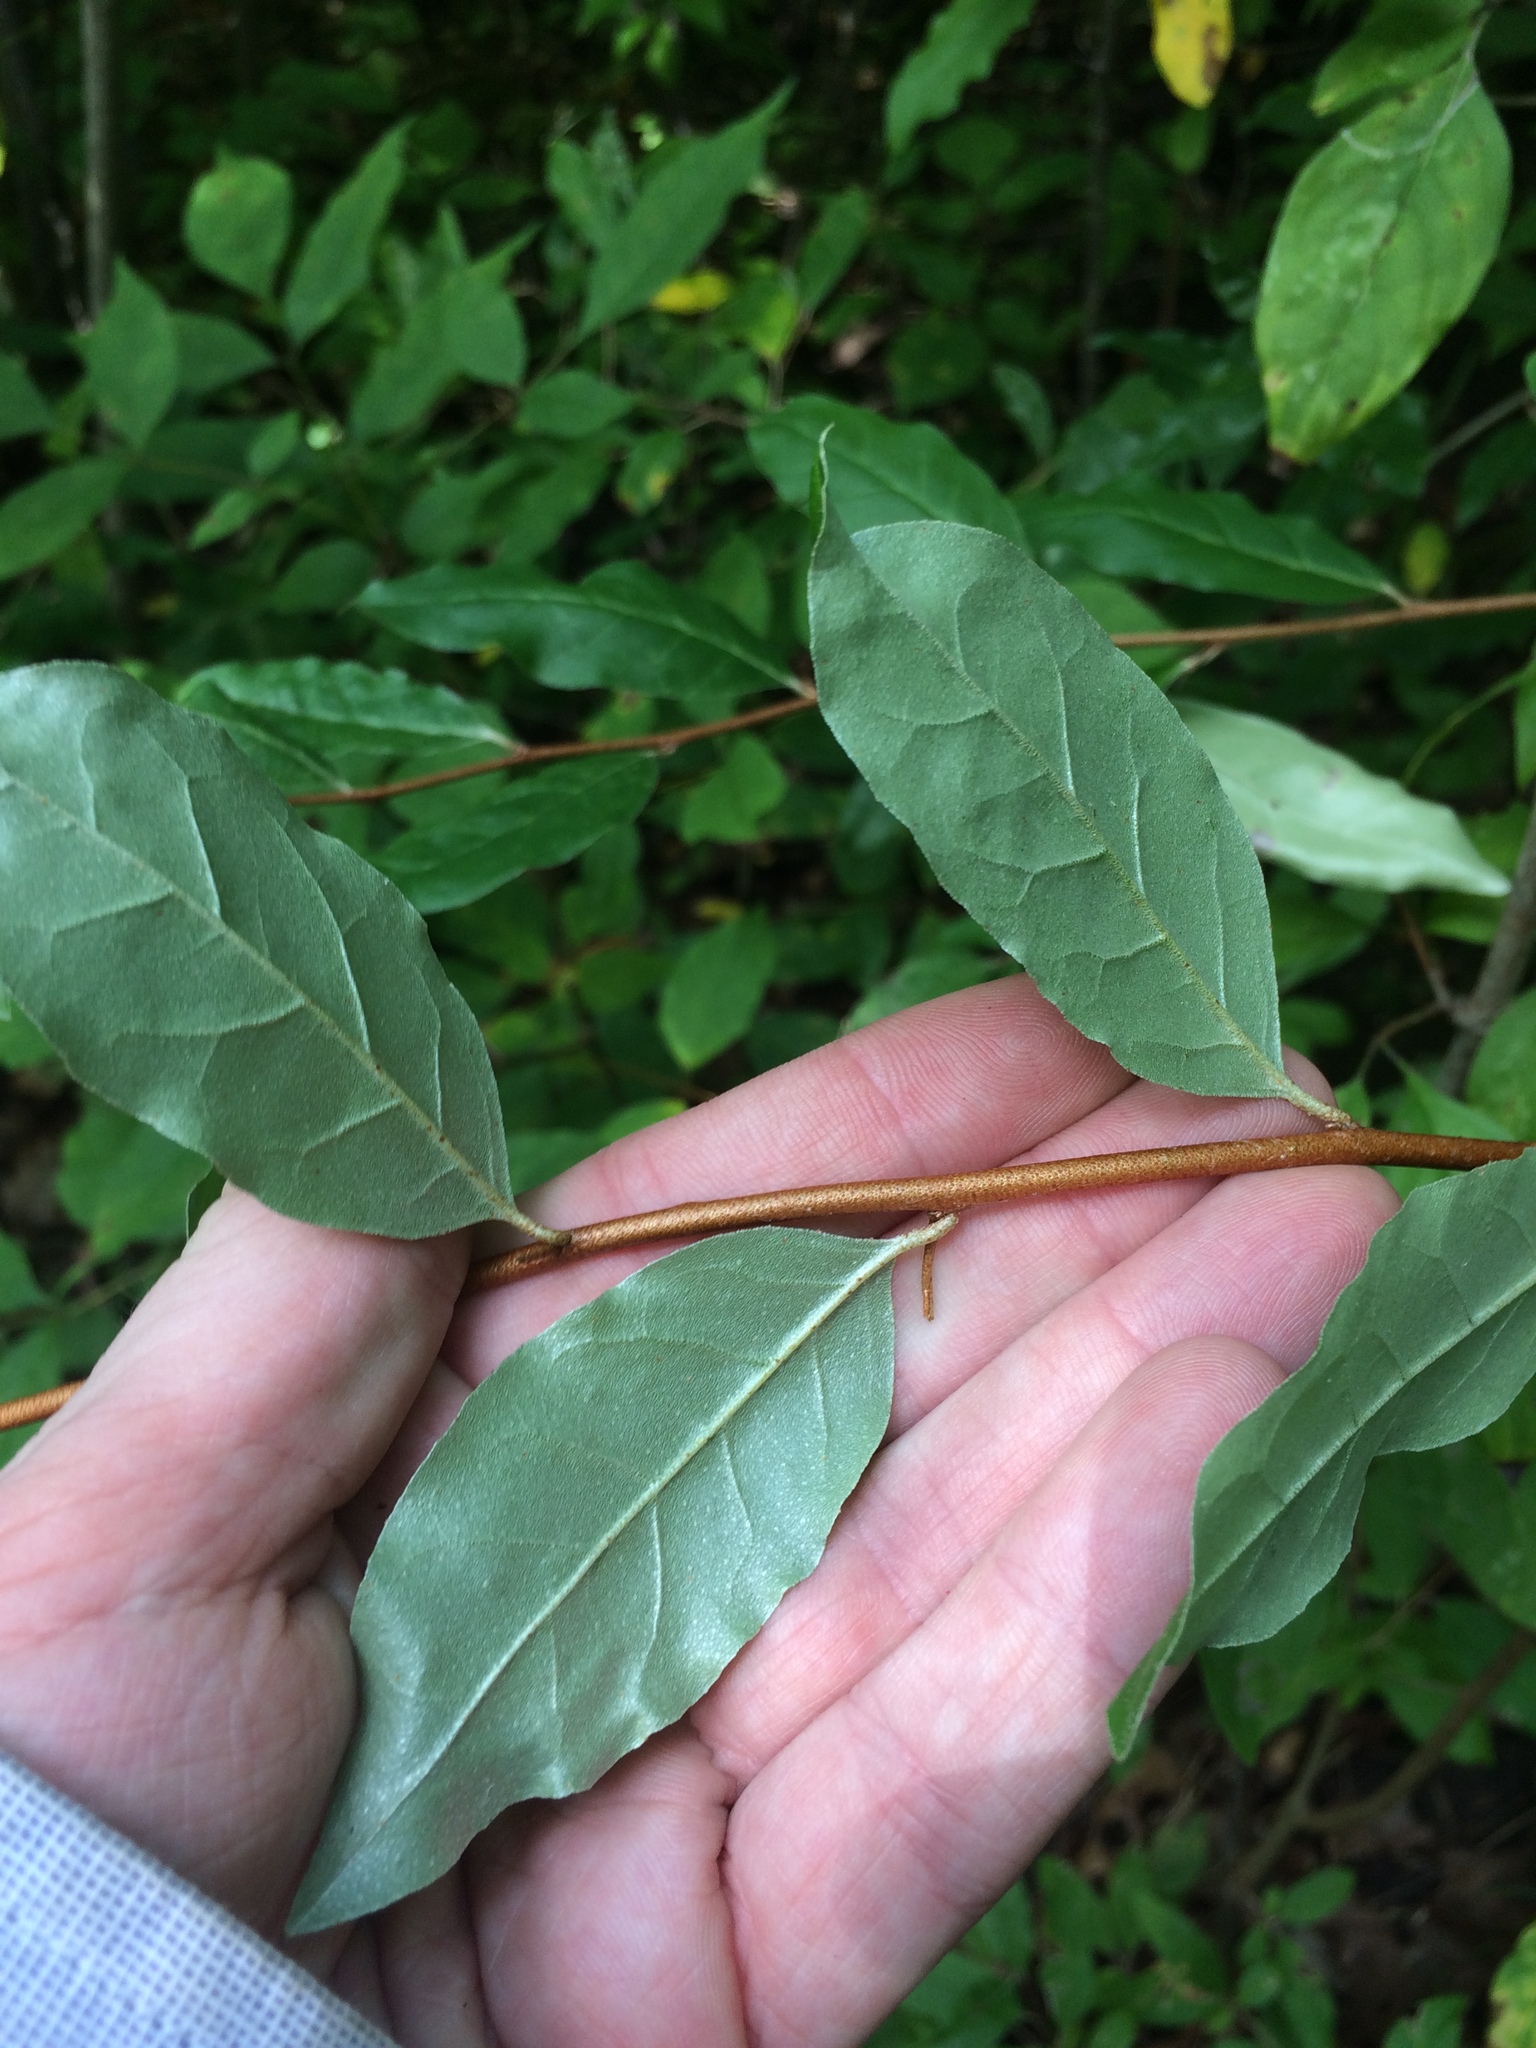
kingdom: Plantae
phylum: Tracheophyta
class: Magnoliopsida
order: Rosales
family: Elaeagnaceae
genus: Elaeagnus
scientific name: Elaeagnus umbellata
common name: Autumn olive
